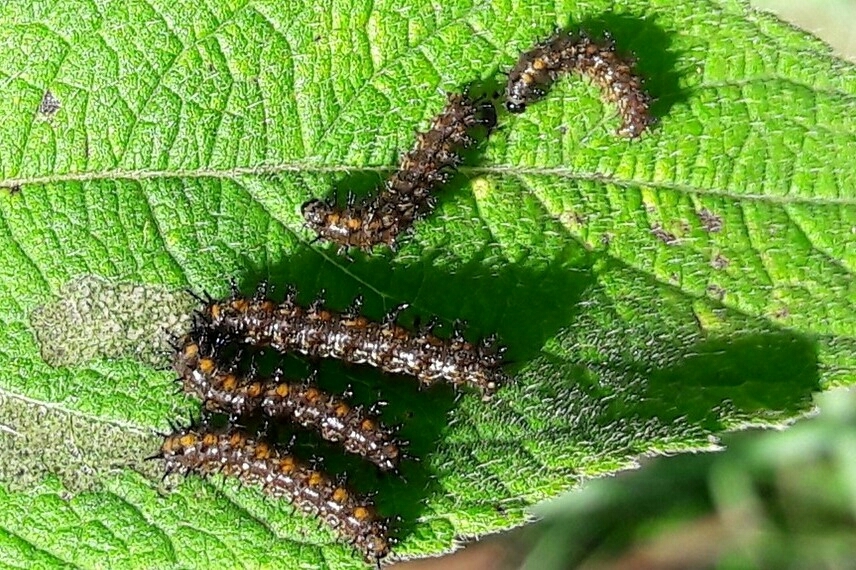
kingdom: Animalia
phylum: Arthropoda
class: Insecta
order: Lepidoptera
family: Nymphalidae
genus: Chlosyne
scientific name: Chlosyne lacinia
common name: Bordered patch
